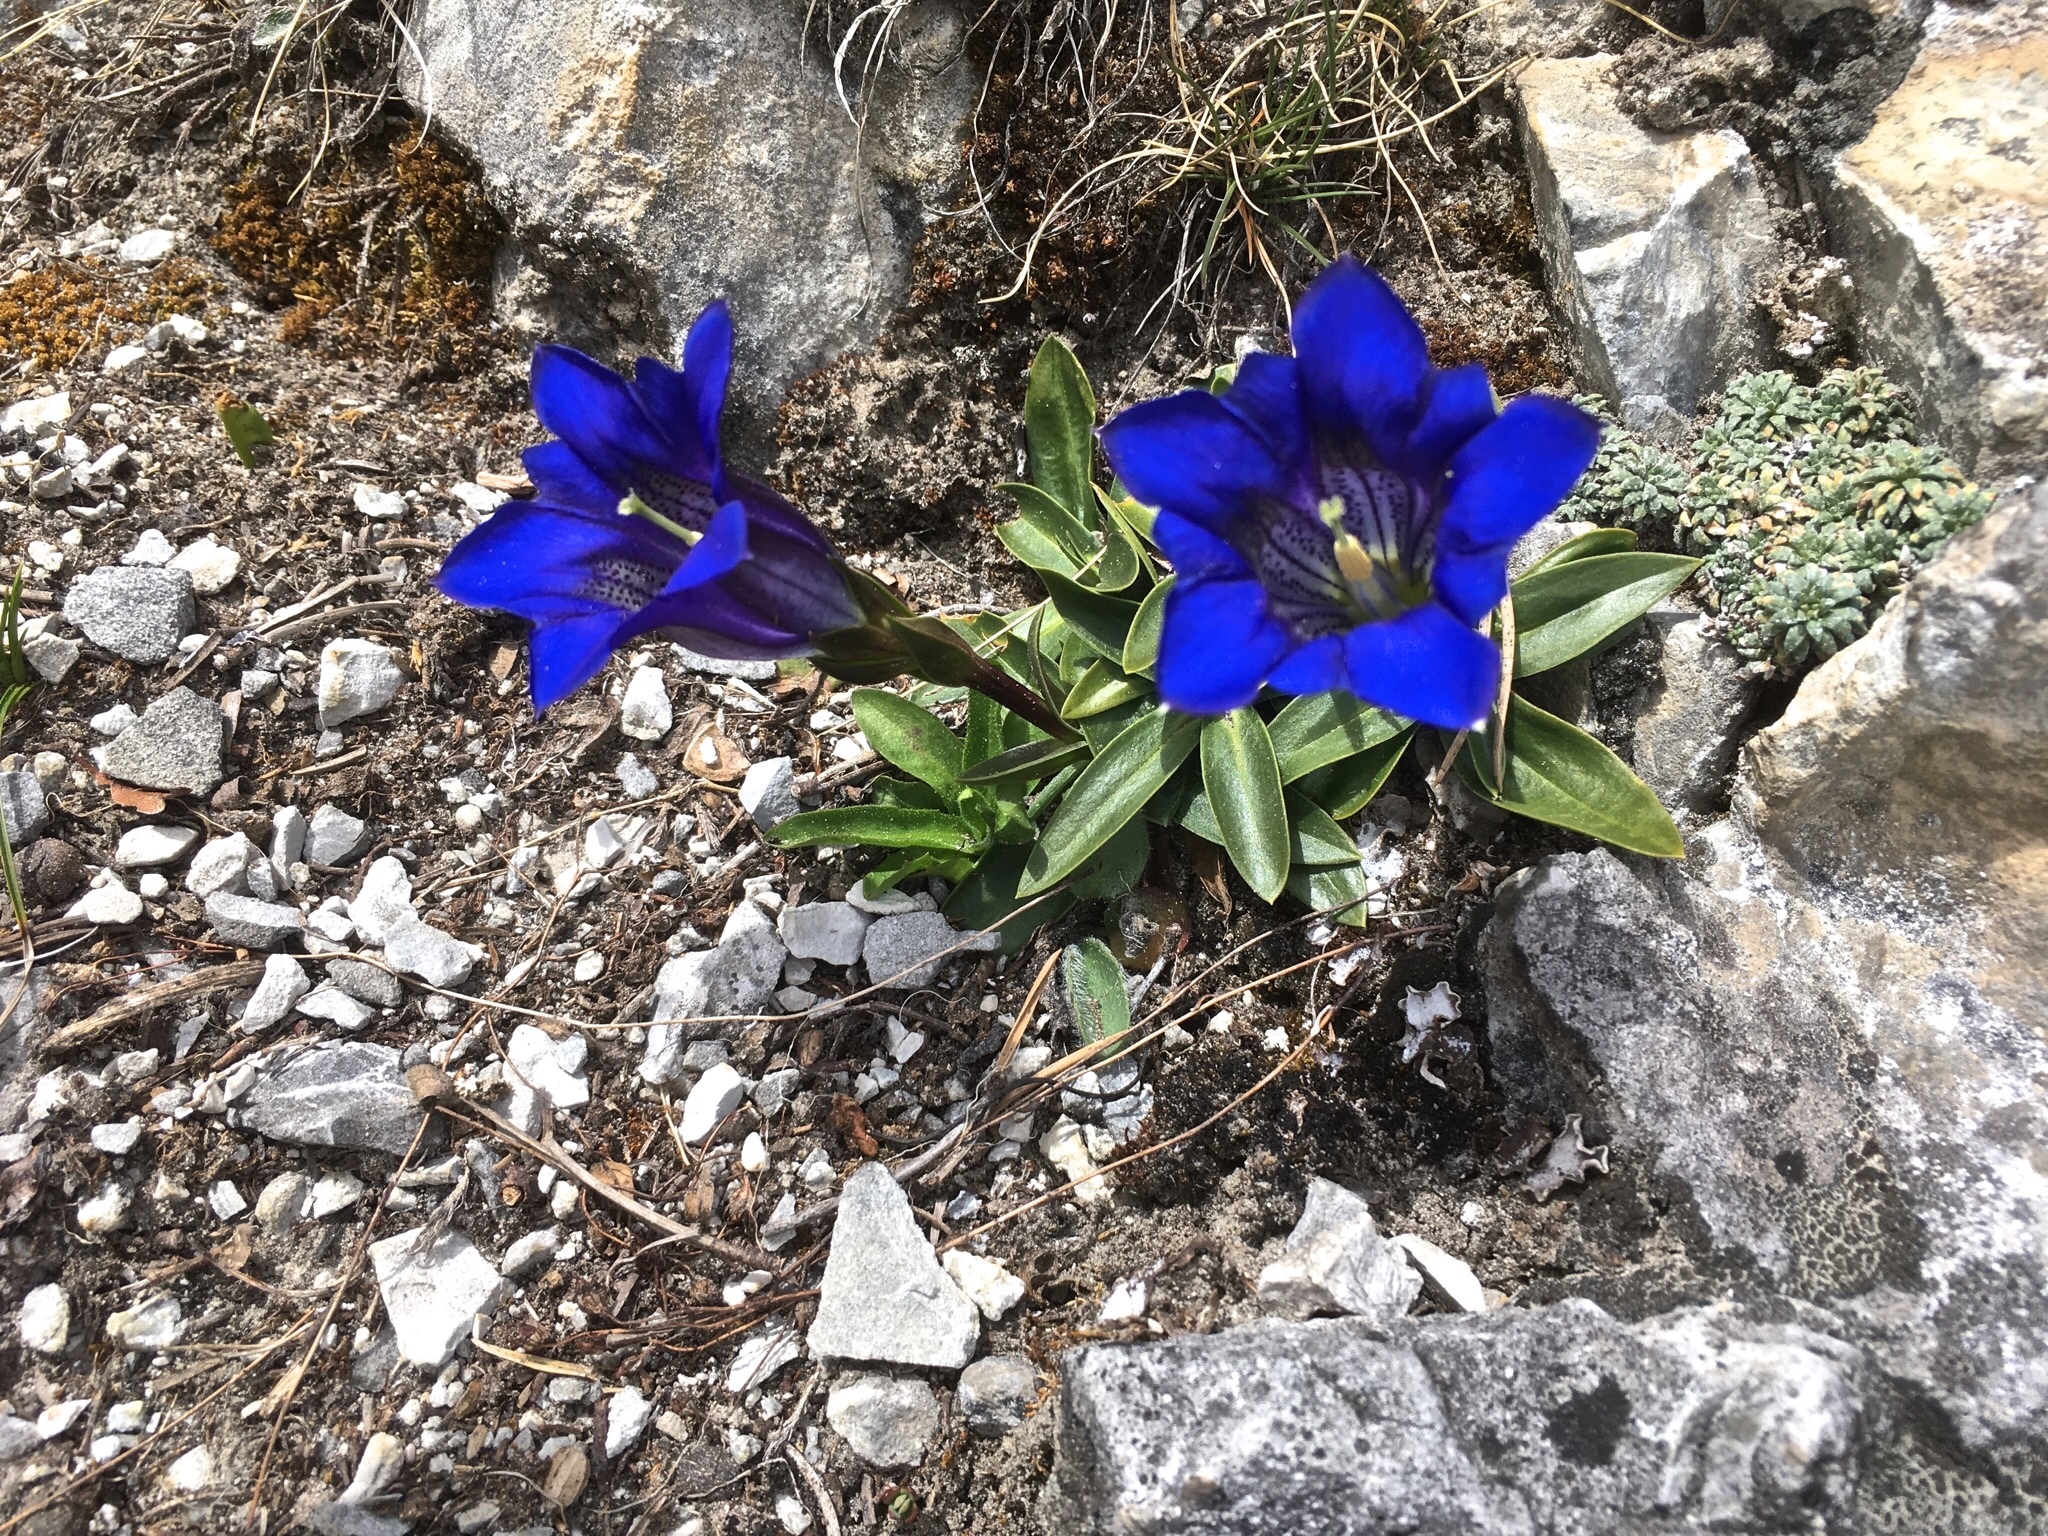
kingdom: Plantae
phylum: Tracheophyta
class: Magnoliopsida
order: Gentianales
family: Gentianaceae
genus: Gentiana
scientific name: Gentiana clusii
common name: Trumpet gentian
